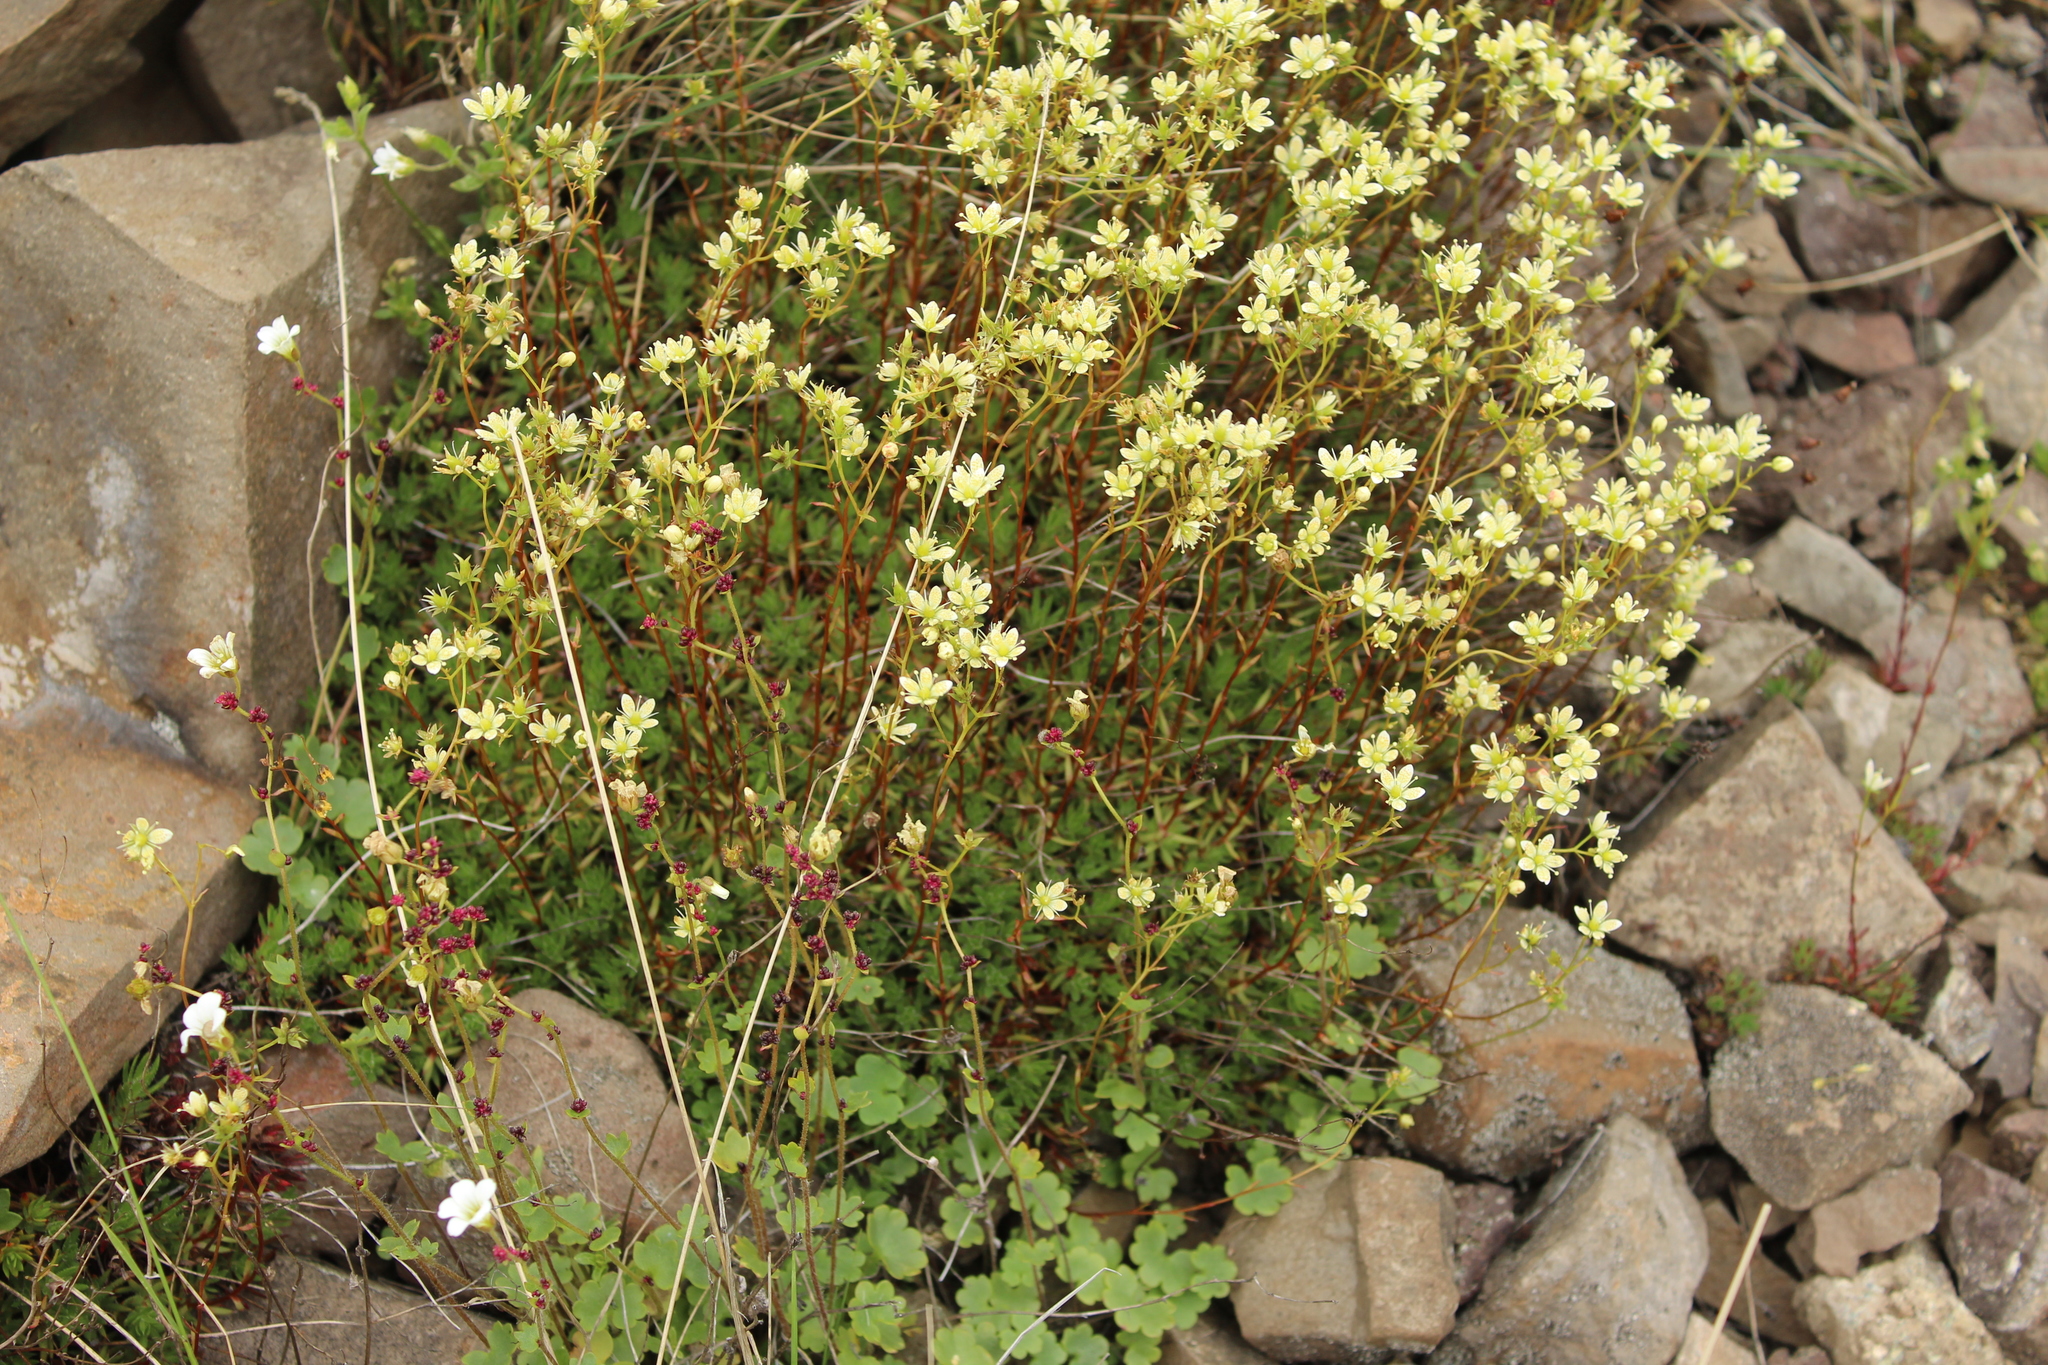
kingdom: Plantae
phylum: Tracheophyta
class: Magnoliopsida
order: Saxifragales
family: Saxifragaceae
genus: Saxifraga
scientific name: Saxifraga
